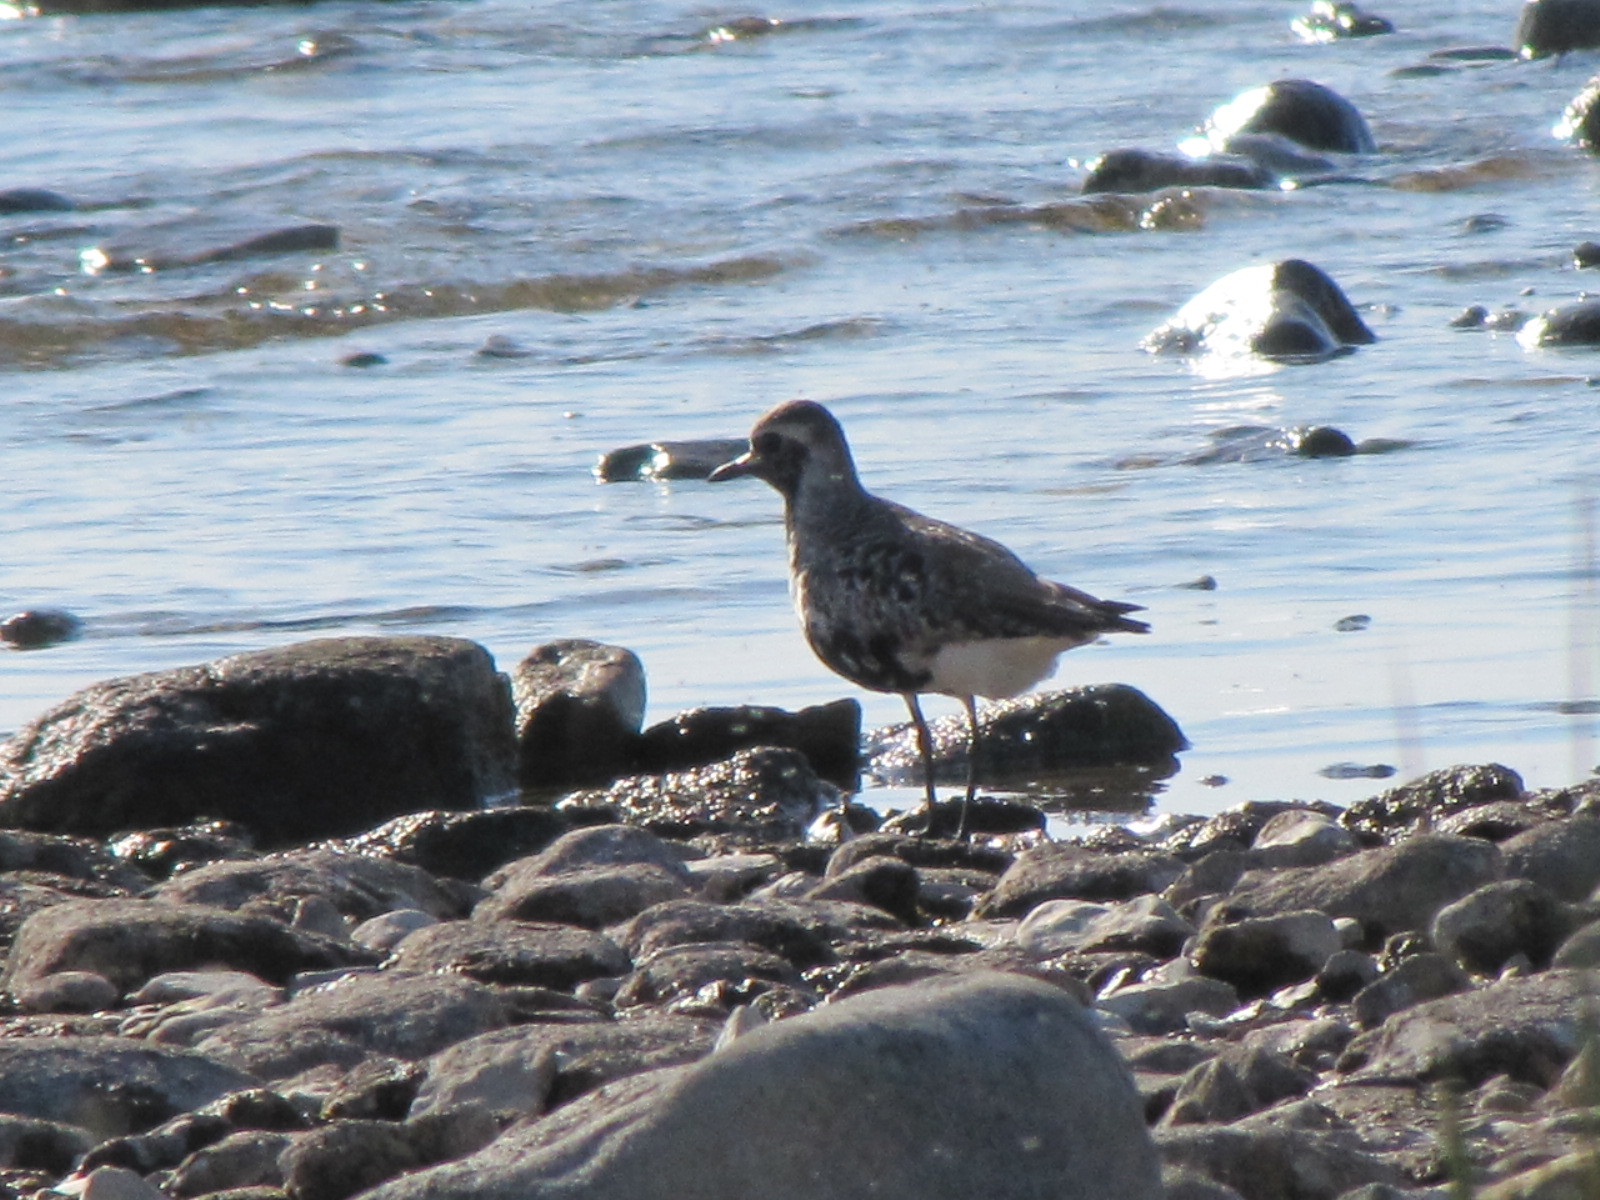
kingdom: Animalia
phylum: Chordata
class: Aves
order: Charadriiformes
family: Charadriidae
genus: Pluvialis
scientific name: Pluvialis squatarola
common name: Grey plover
